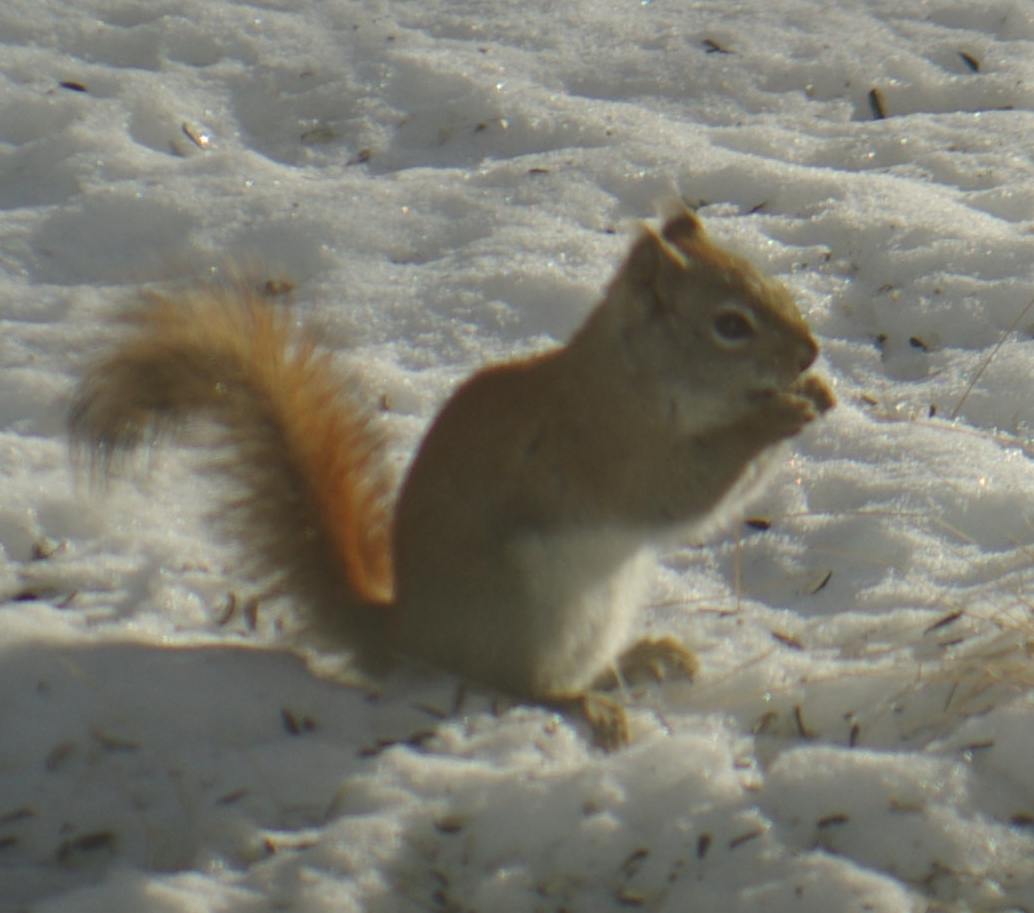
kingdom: Animalia
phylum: Chordata
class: Mammalia
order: Rodentia
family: Sciuridae
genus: Tamiasciurus
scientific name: Tamiasciurus hudsonicus
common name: Red squirrel
